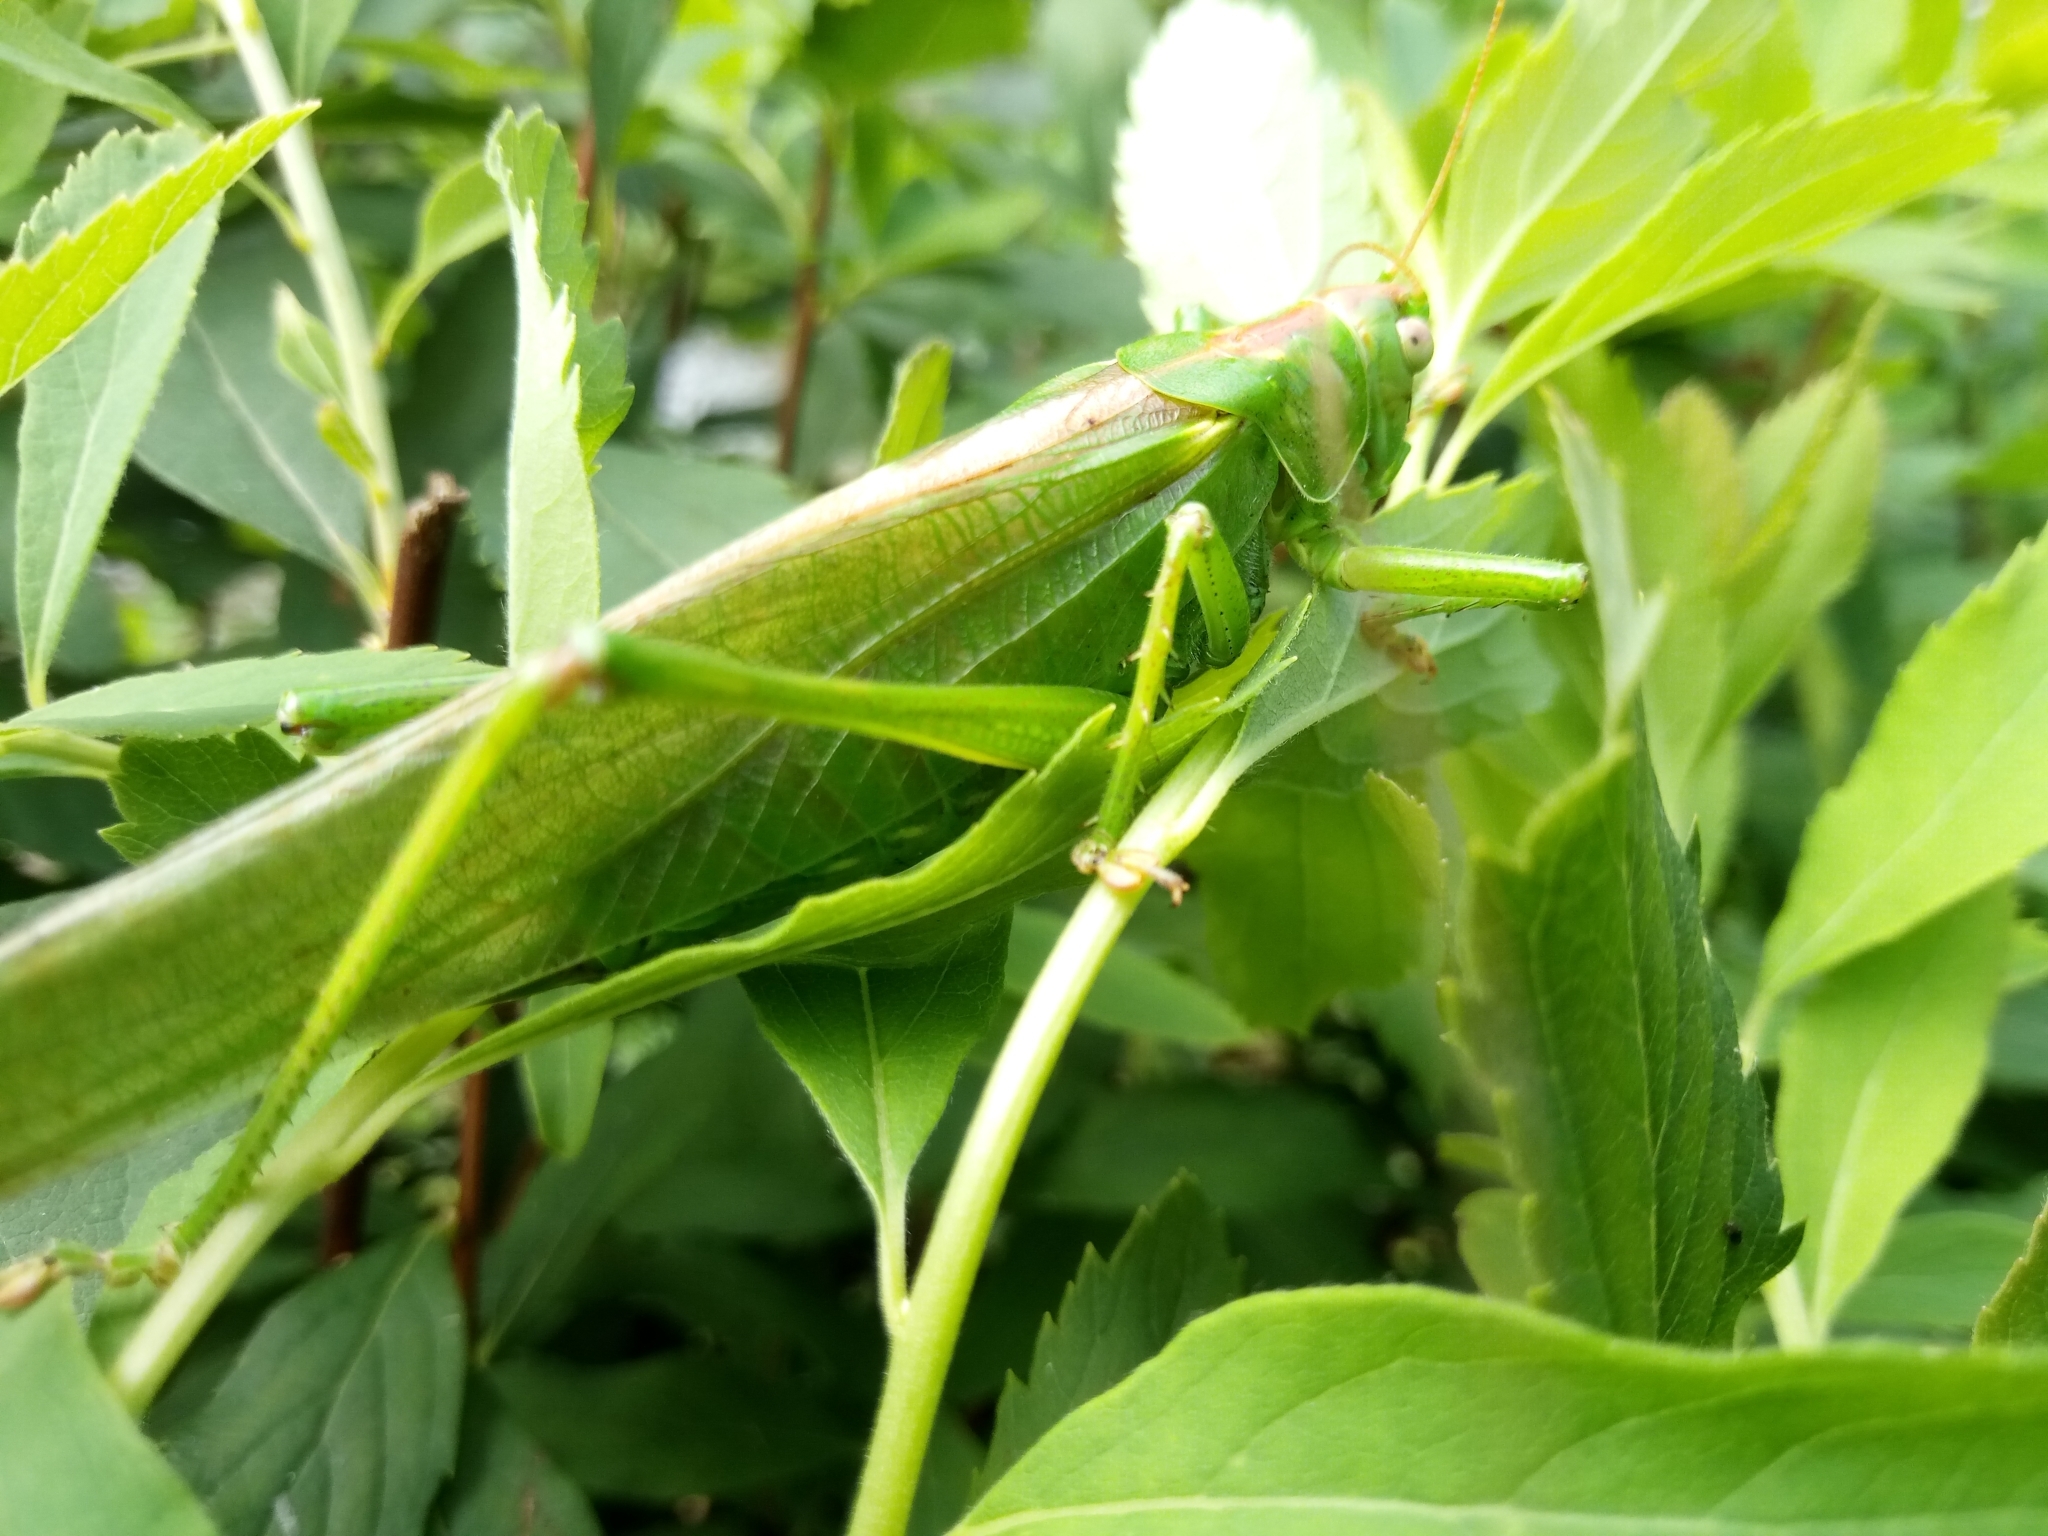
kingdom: Animalia
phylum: Arthropoda
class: Insecta
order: Orthoptera
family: Tettigoniidae
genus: Tettigonia
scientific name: Tettigonia viridissima
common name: Great green bush-cricket
